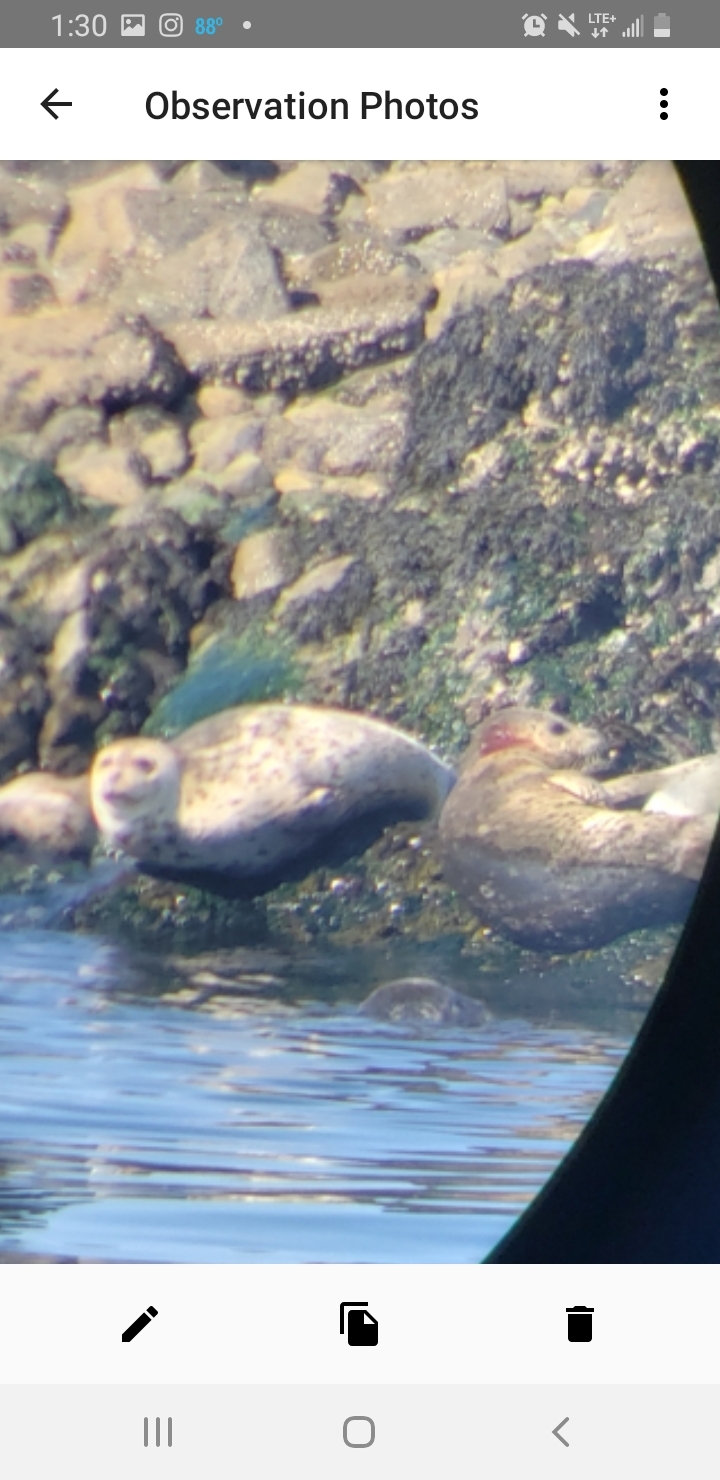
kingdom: Animalia
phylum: Chordata
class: Mammalia
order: Carnivora
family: Phocidae
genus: Phoca
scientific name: Phoca vitulina
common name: Harbor seal
